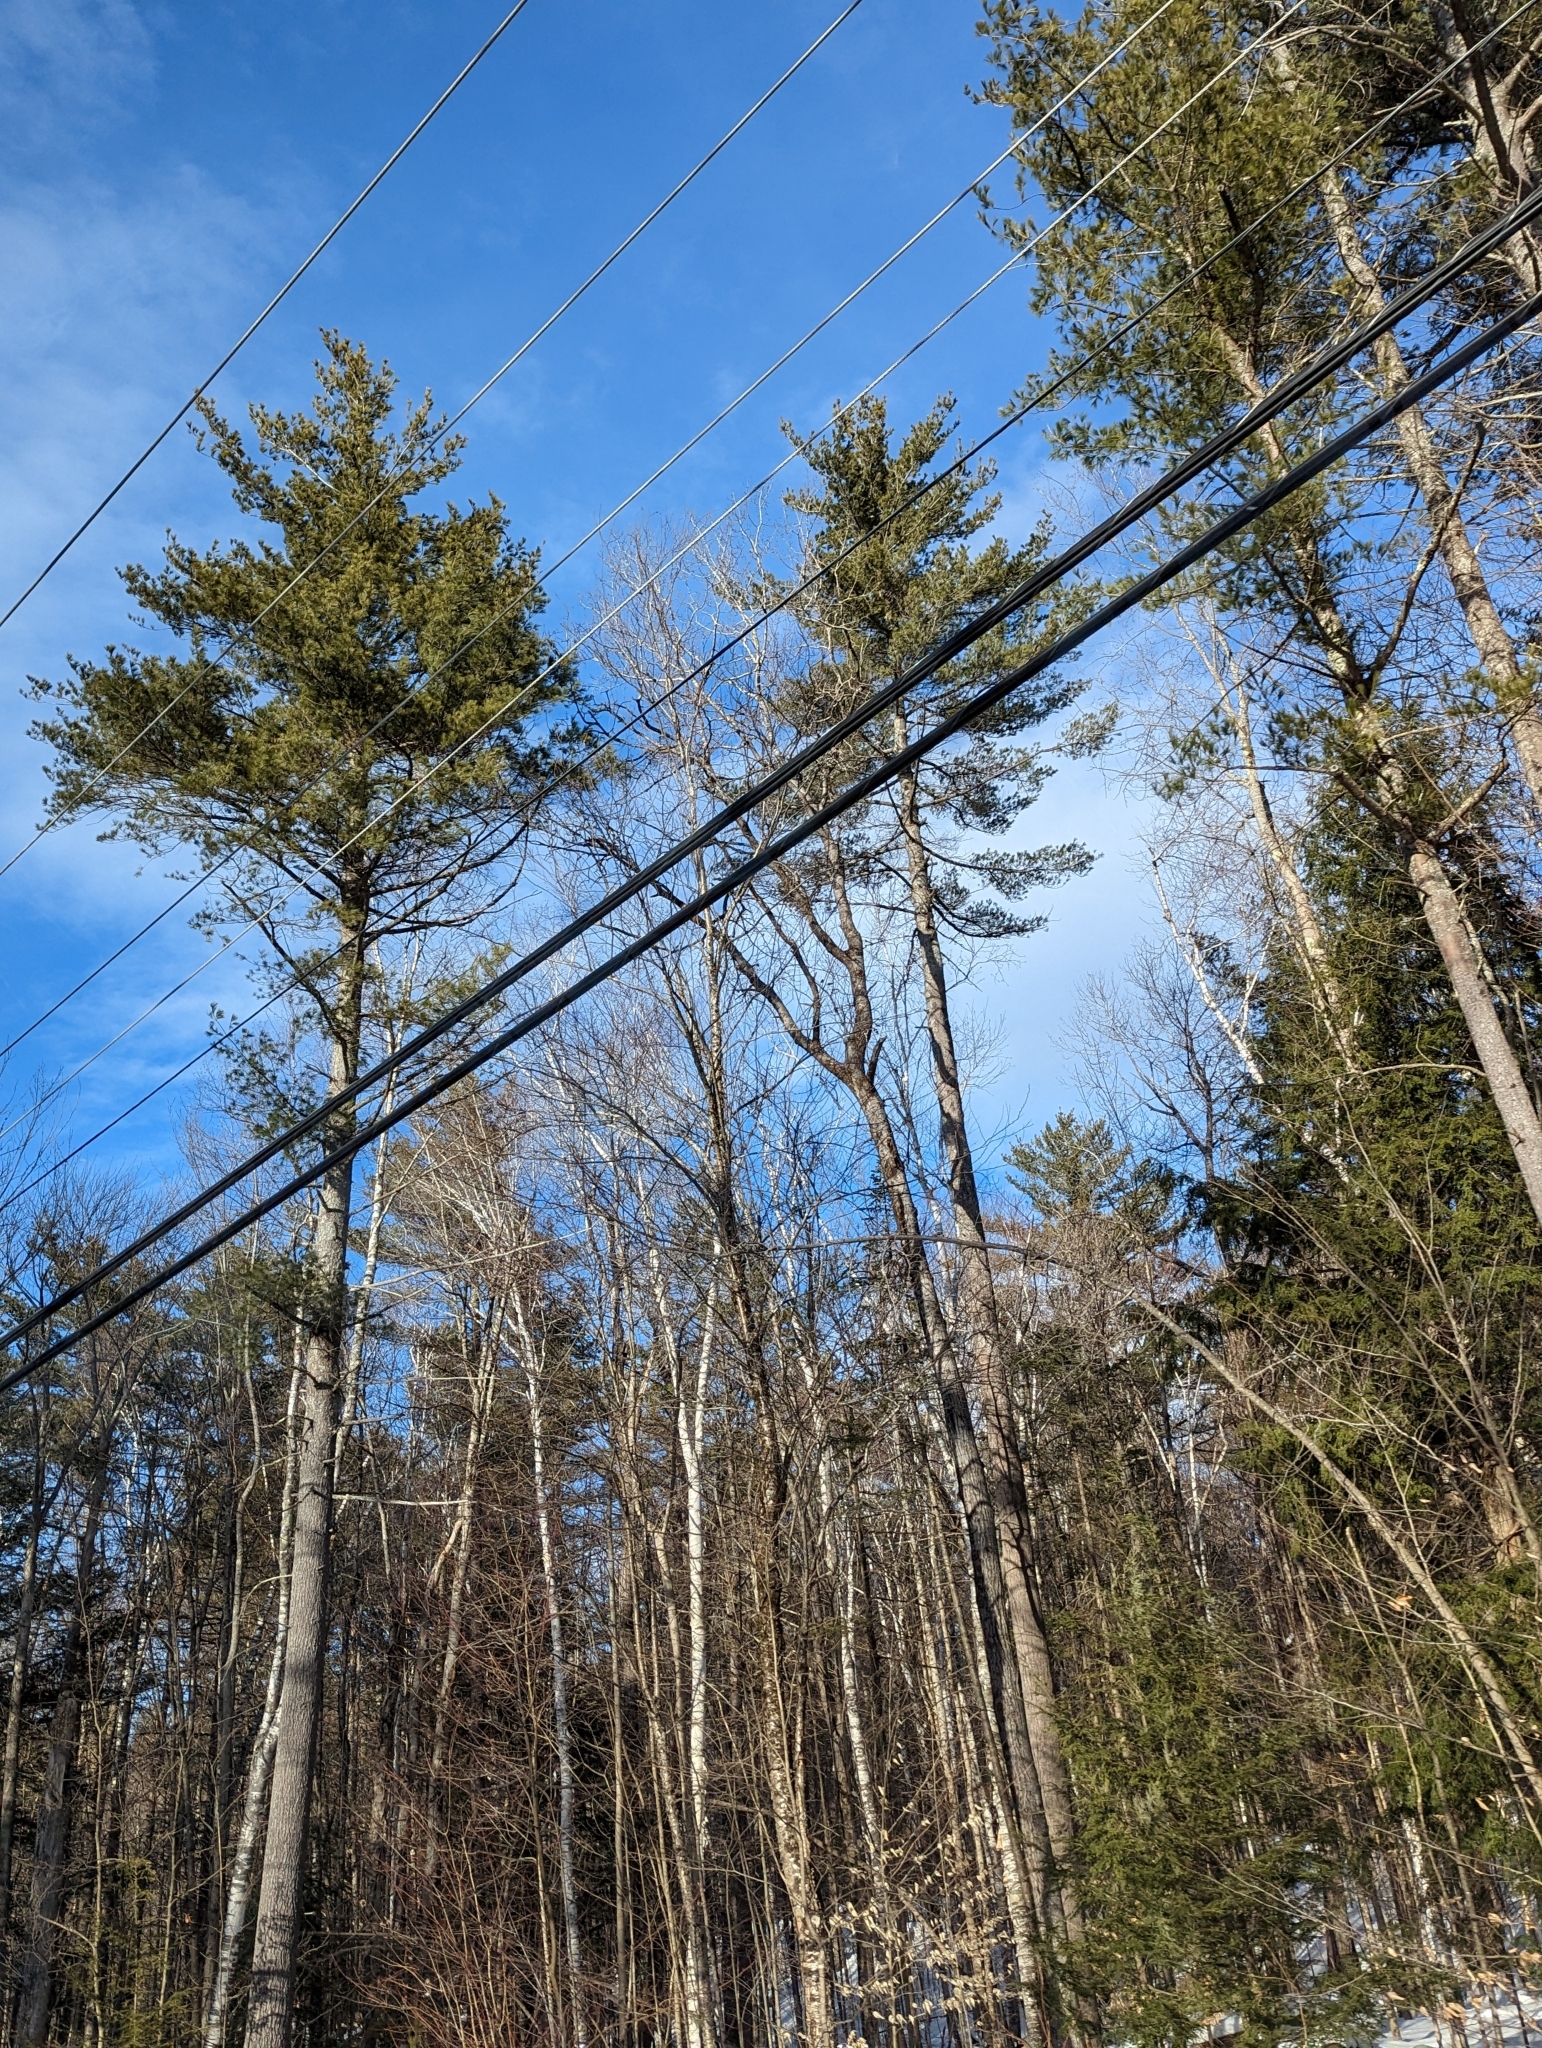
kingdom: Plantae
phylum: Tracheophyta
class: Pinopsida
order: Pinales
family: Pinaceae
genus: Pinus
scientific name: Pinus strobus
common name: Weymouth pine
